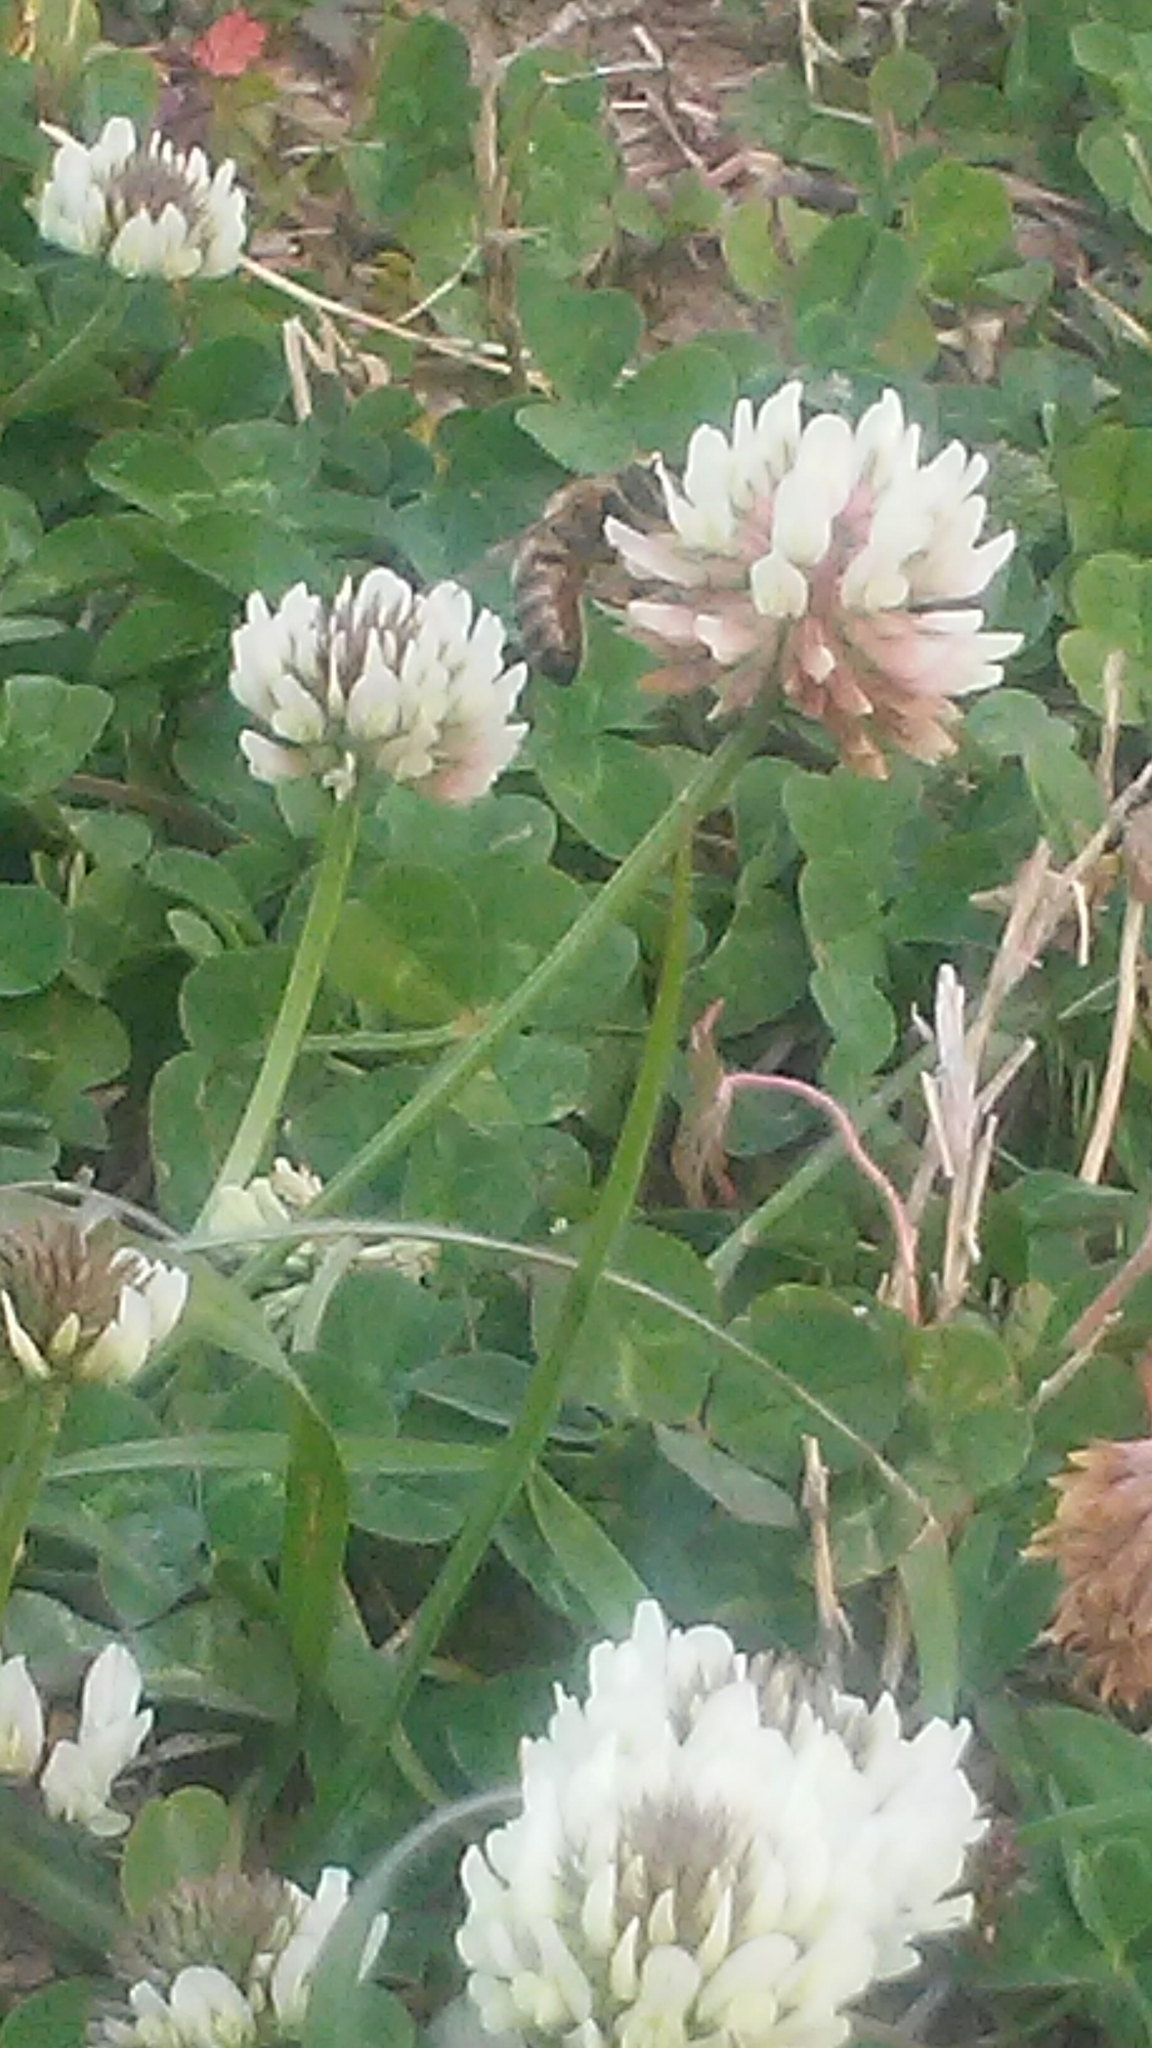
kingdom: Animalia
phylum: Arthropoda
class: Insecta
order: Hymenoptera
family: Apidae
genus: Apis
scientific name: Apis mellifera
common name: Honey bee
